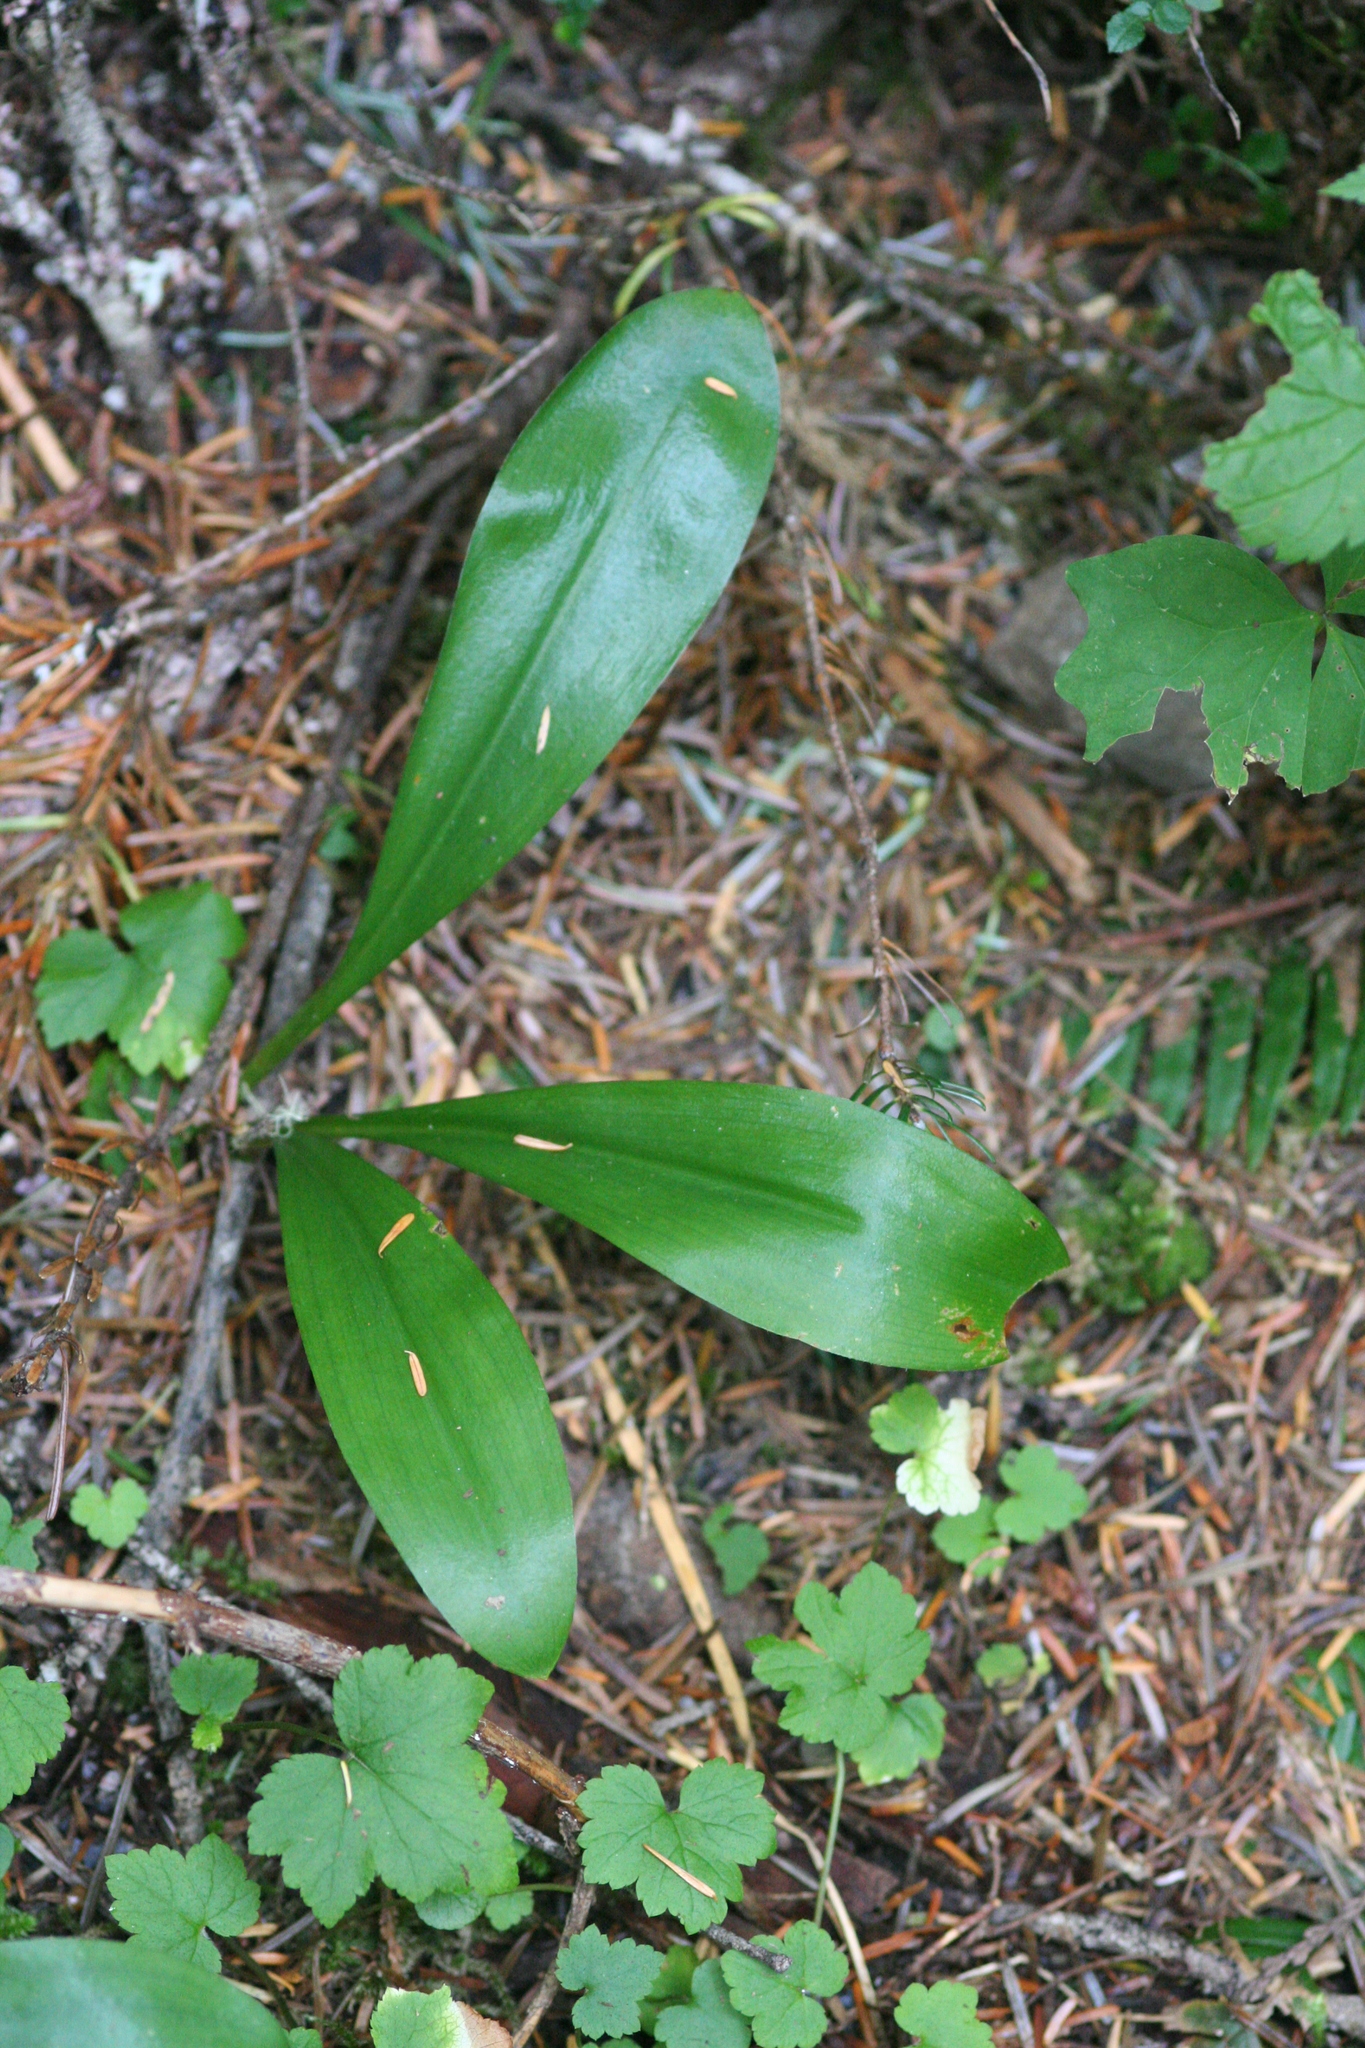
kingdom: Plantae
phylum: Tracheophyta
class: Liliopsida
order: Liliales
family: Liliaceae
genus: Clintonia
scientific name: Clintonia uniflora
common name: Queen's cup
